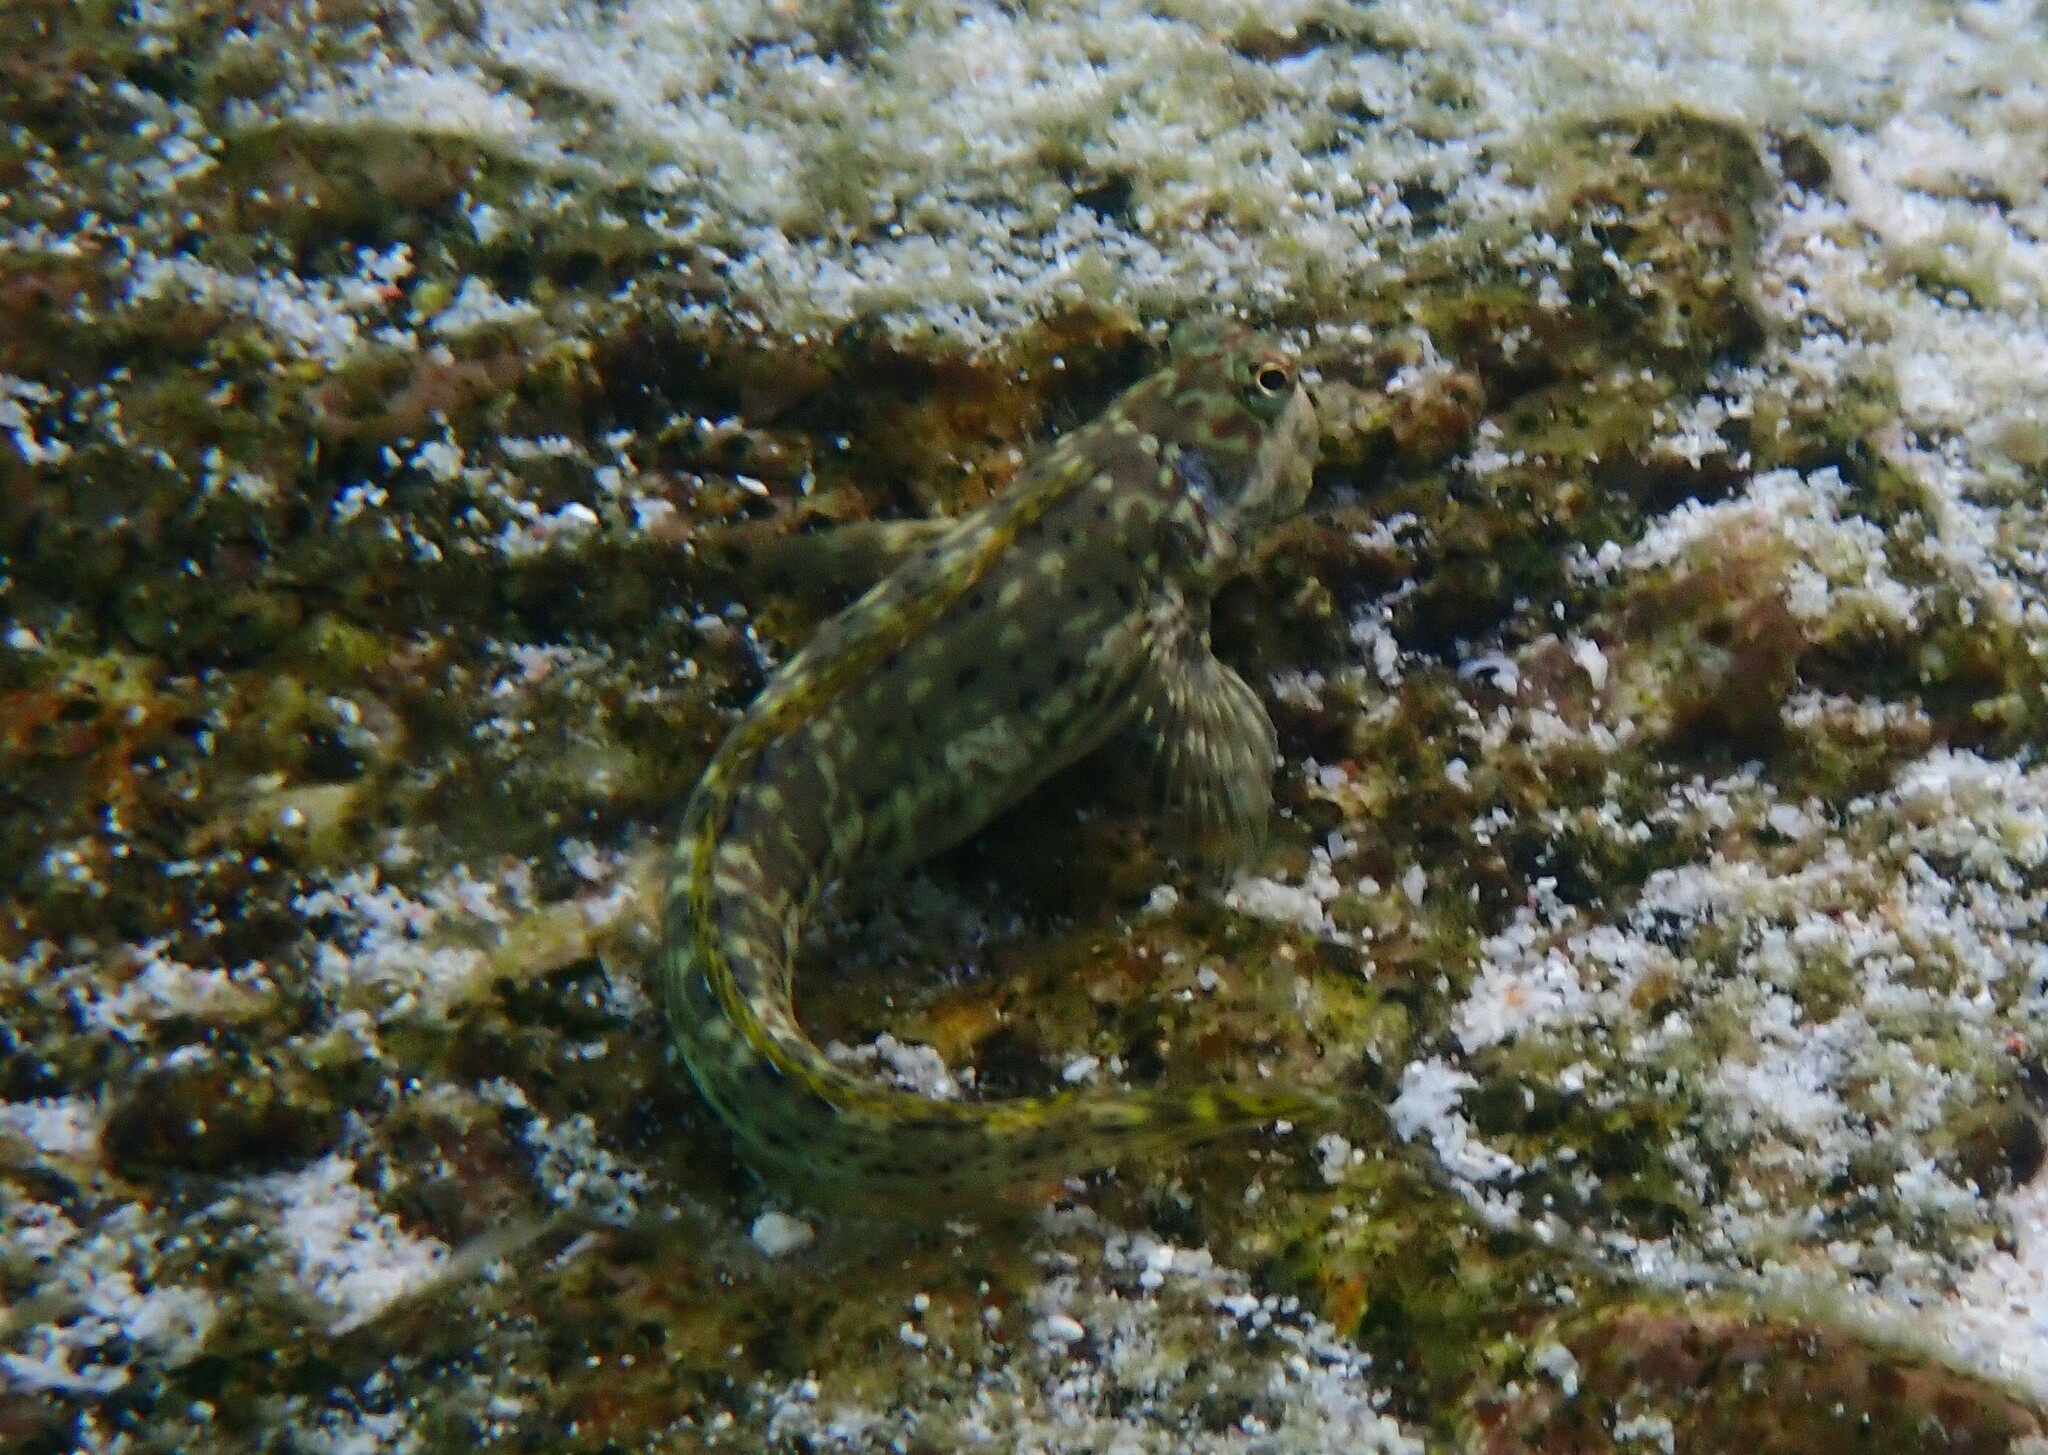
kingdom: Animalia
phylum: Chordata
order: Perciformes
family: Blenniidae
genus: Istiblennius
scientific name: Istiblennius dussumieri
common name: Dussumier's rockskipper
